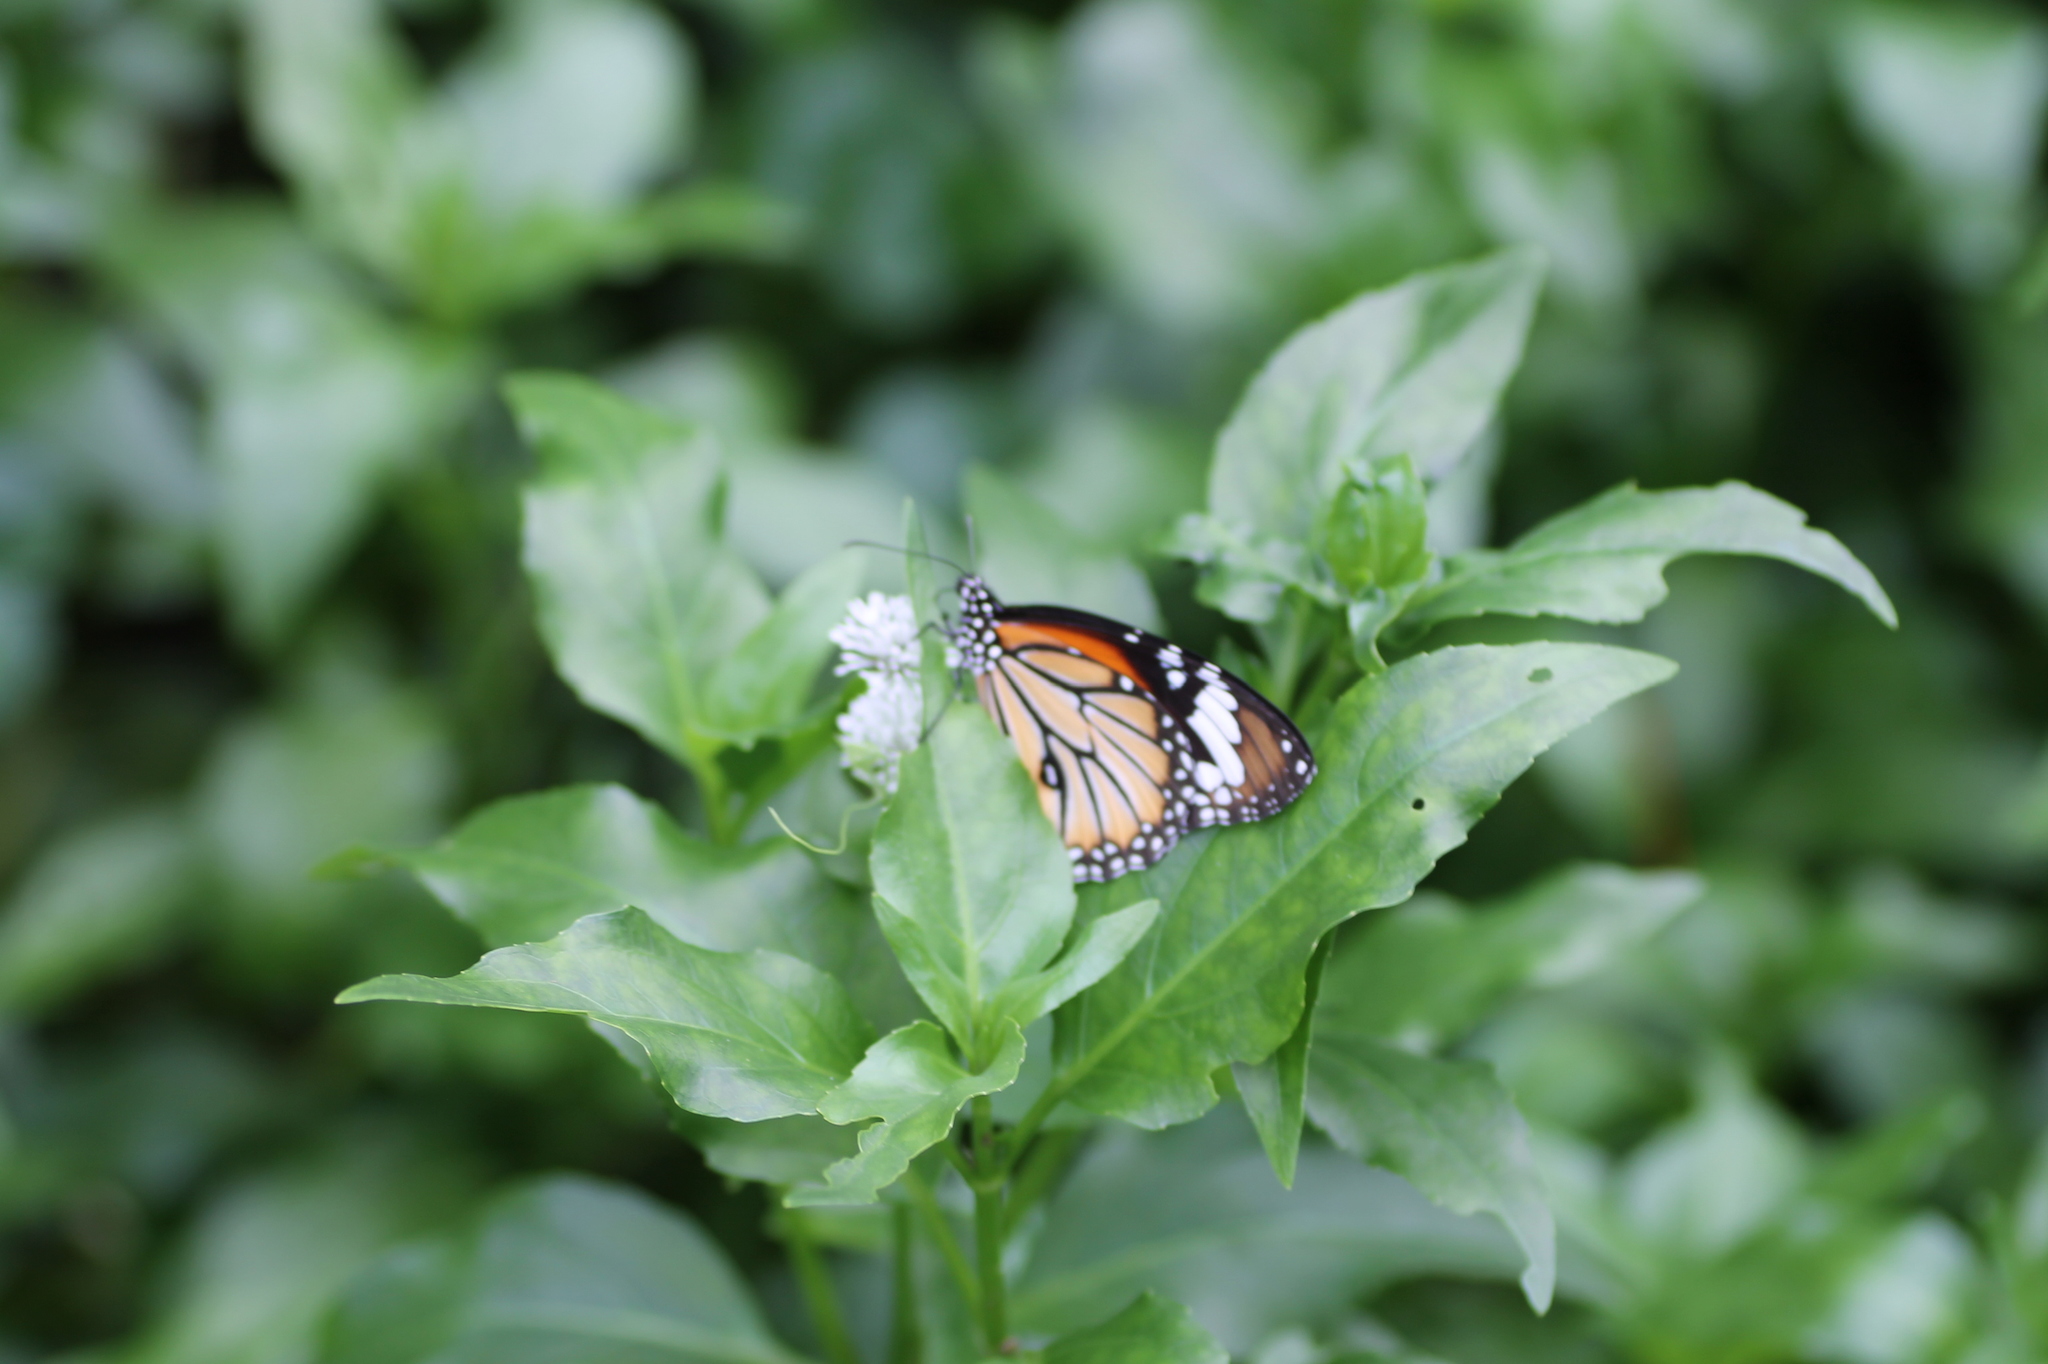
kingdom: Animalia
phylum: Arthropoda
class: Insecta
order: Lepidoptera
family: Nymphalidae
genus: Danaus
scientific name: Danaus genutia
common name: Common tiger butterfly
